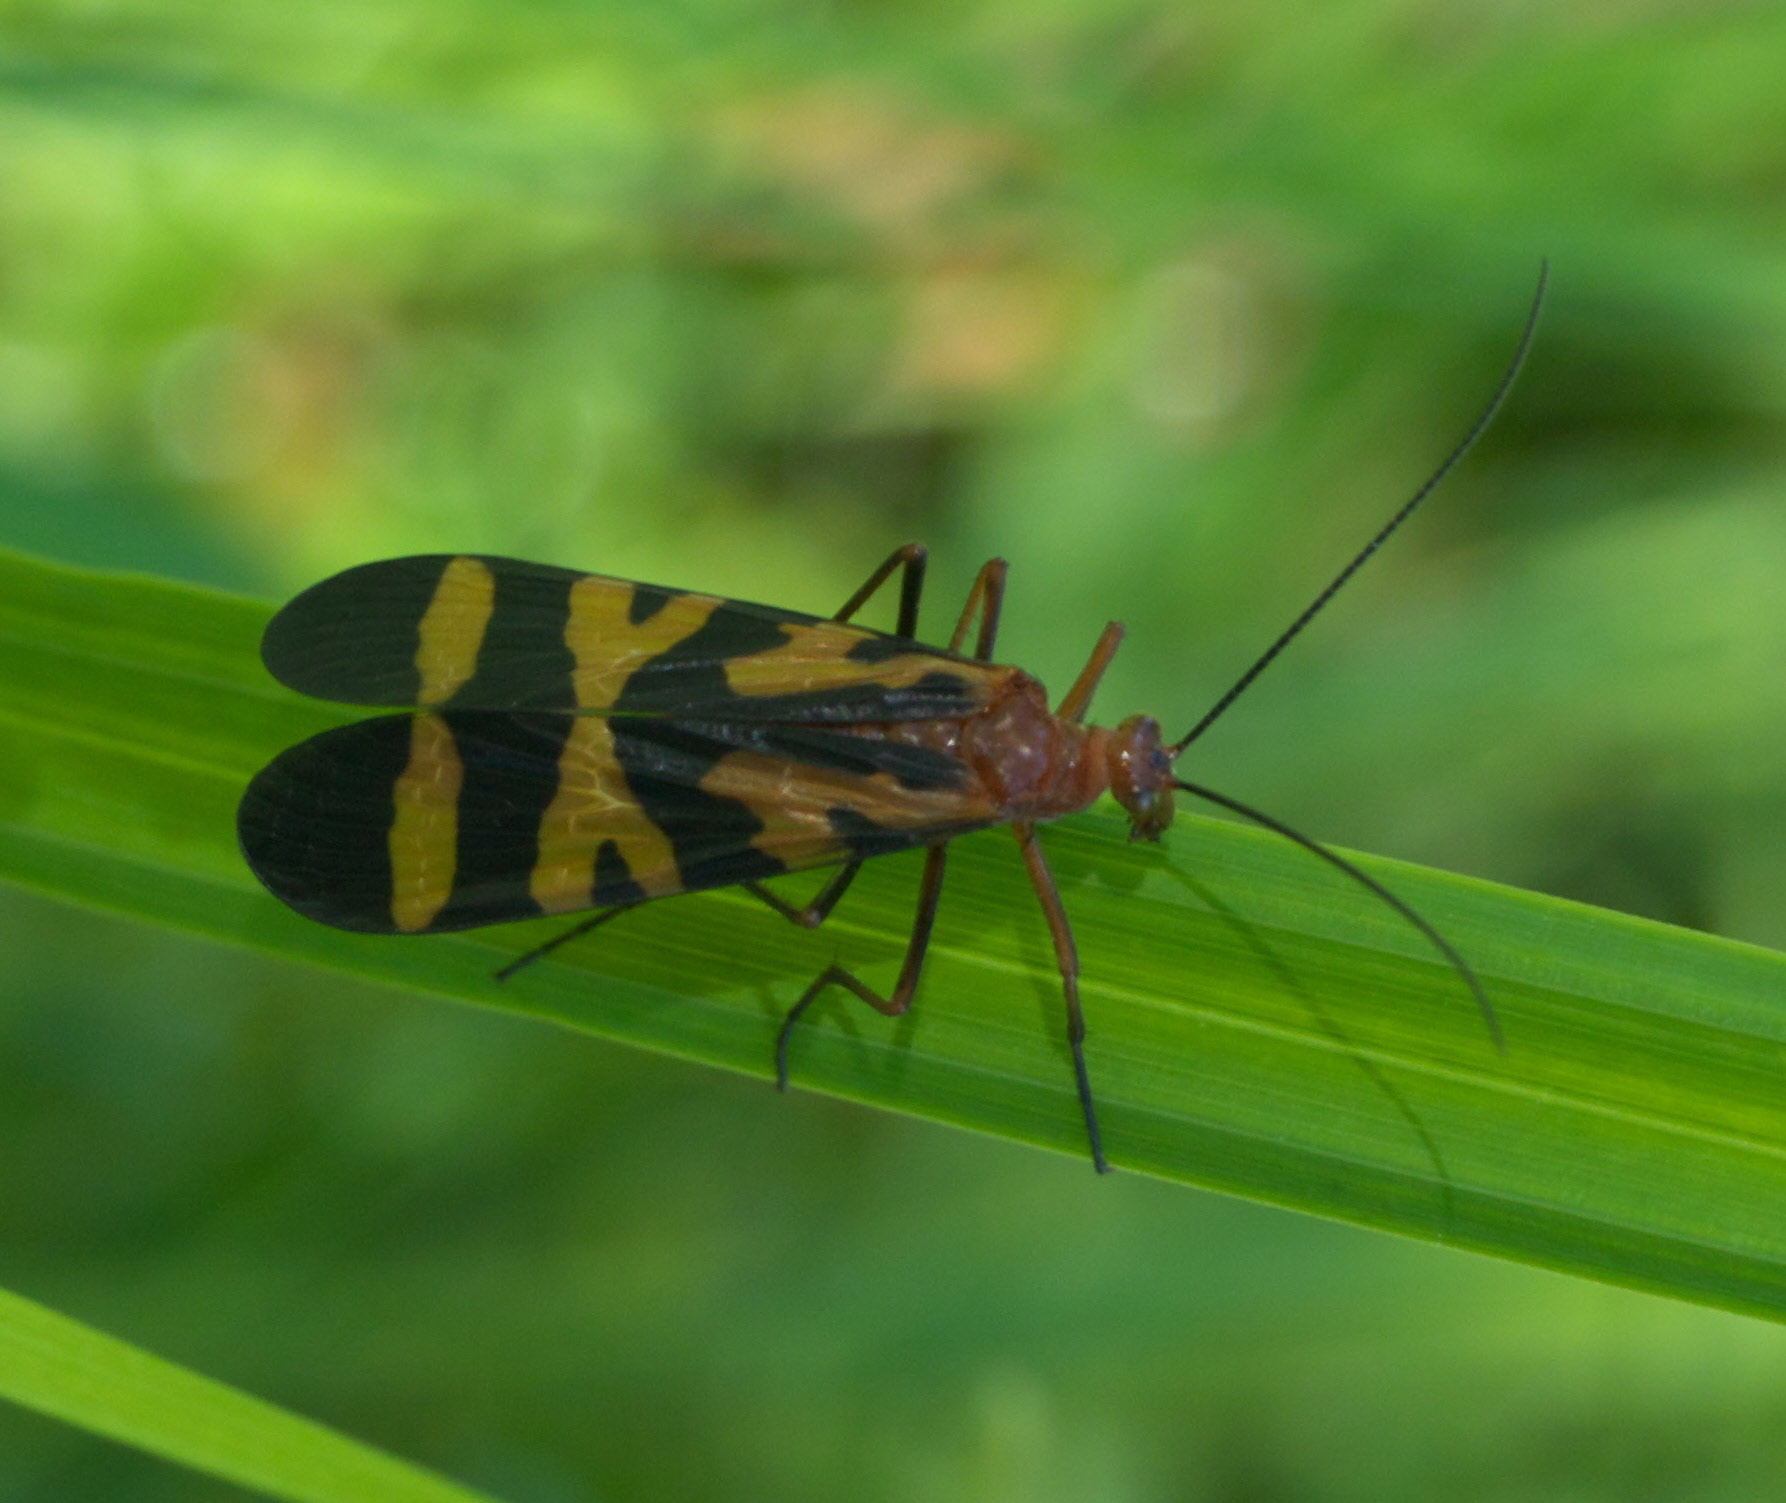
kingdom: Animalia
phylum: Arthropoda
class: Insecta
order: Mecoptera
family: Panorpidae
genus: Panorpa
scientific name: Panorpa nuptialis
